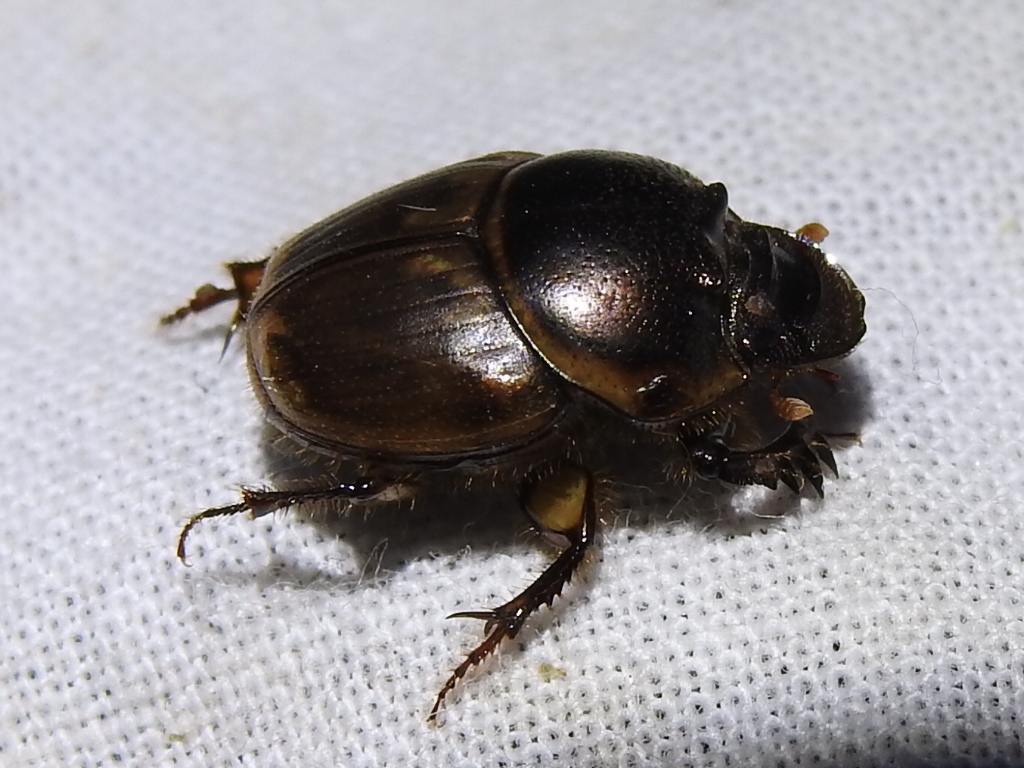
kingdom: Animalia
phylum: Arthropoda
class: Insecta
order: Coleoptera
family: Scarabaeidae
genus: Digitonthophagus
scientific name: Digitonthophagus gazella
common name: Brown dung beetle
